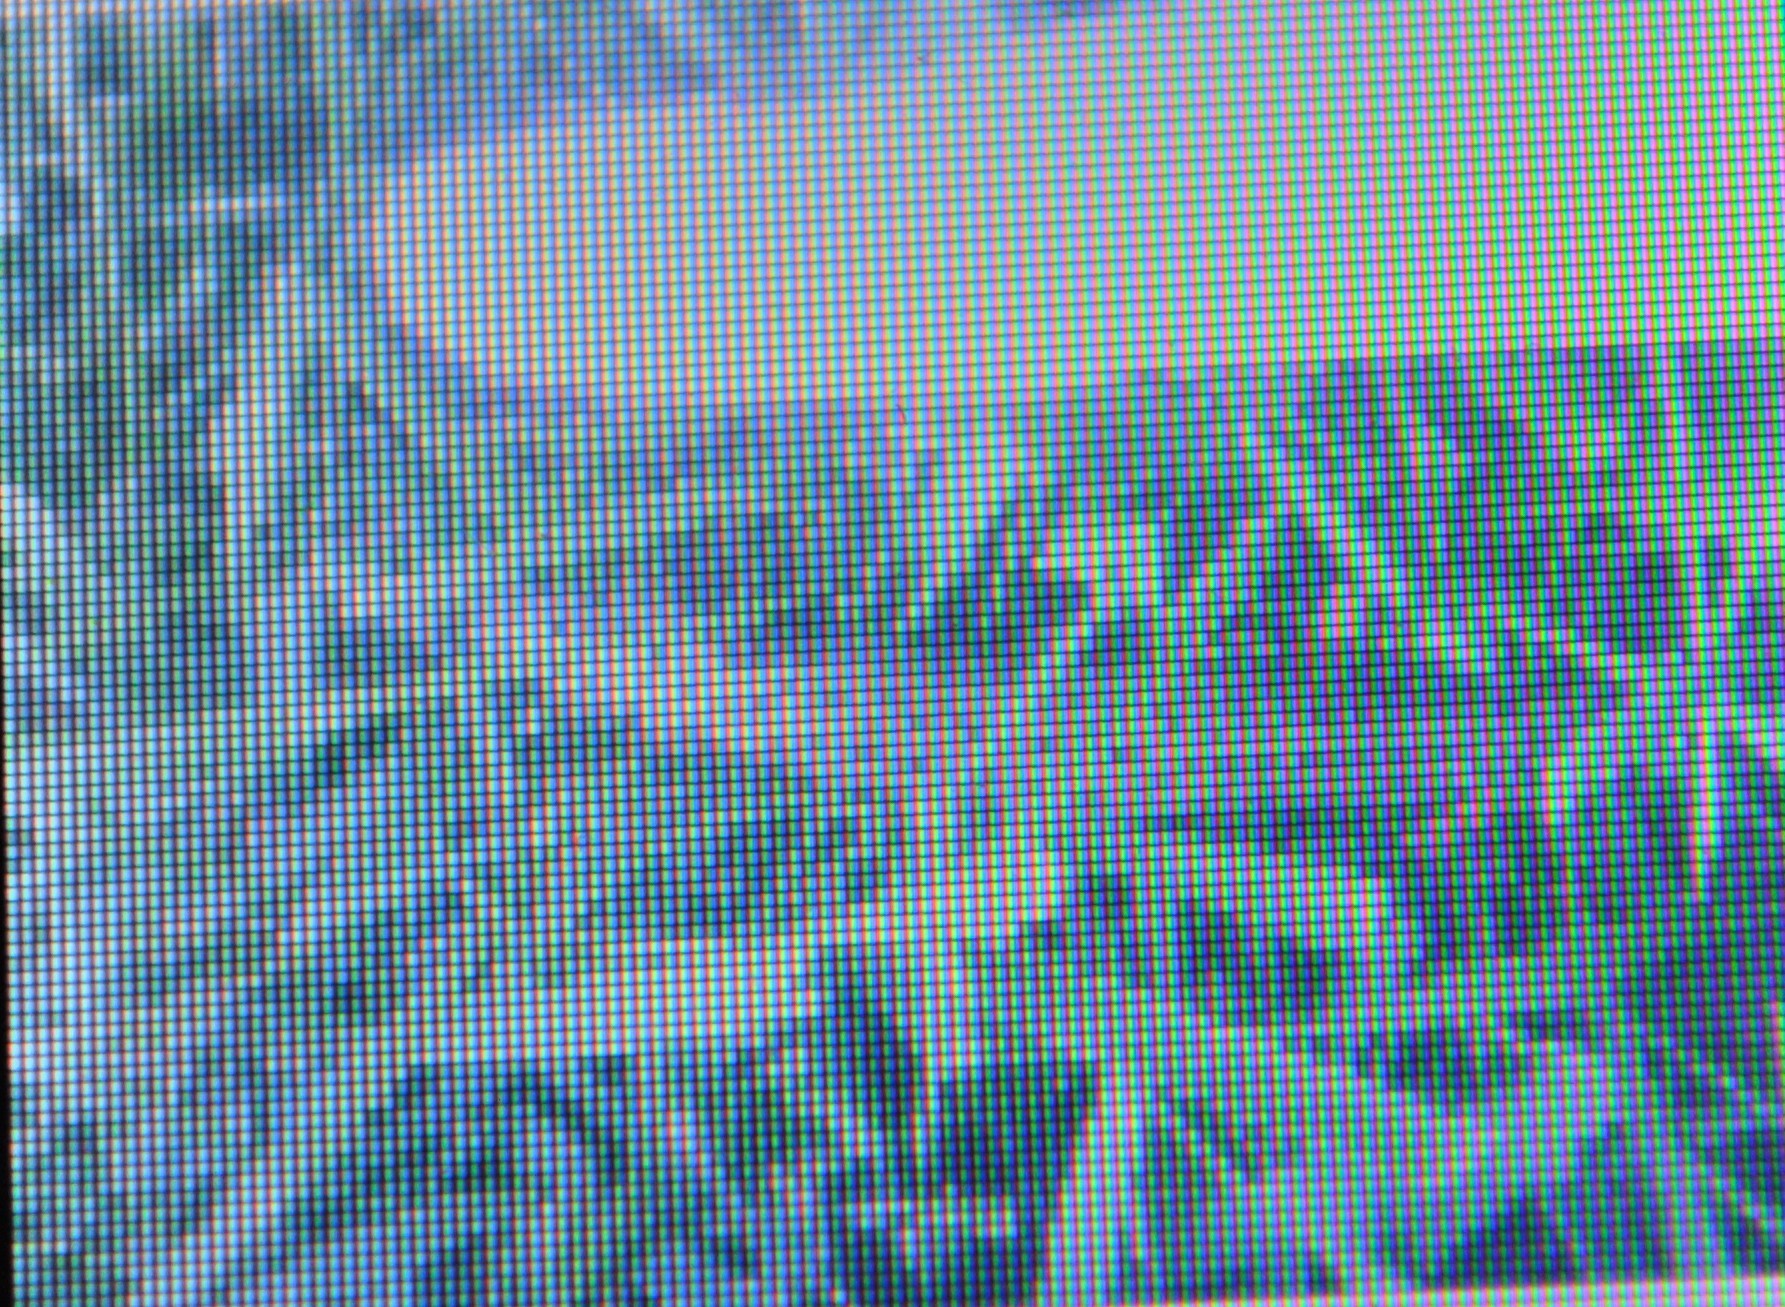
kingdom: Animalia
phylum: Mollusca
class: Gastropoda
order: Stylommatophora
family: Limacidae
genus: Limax
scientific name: Limax maximus
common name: Great grey slug
